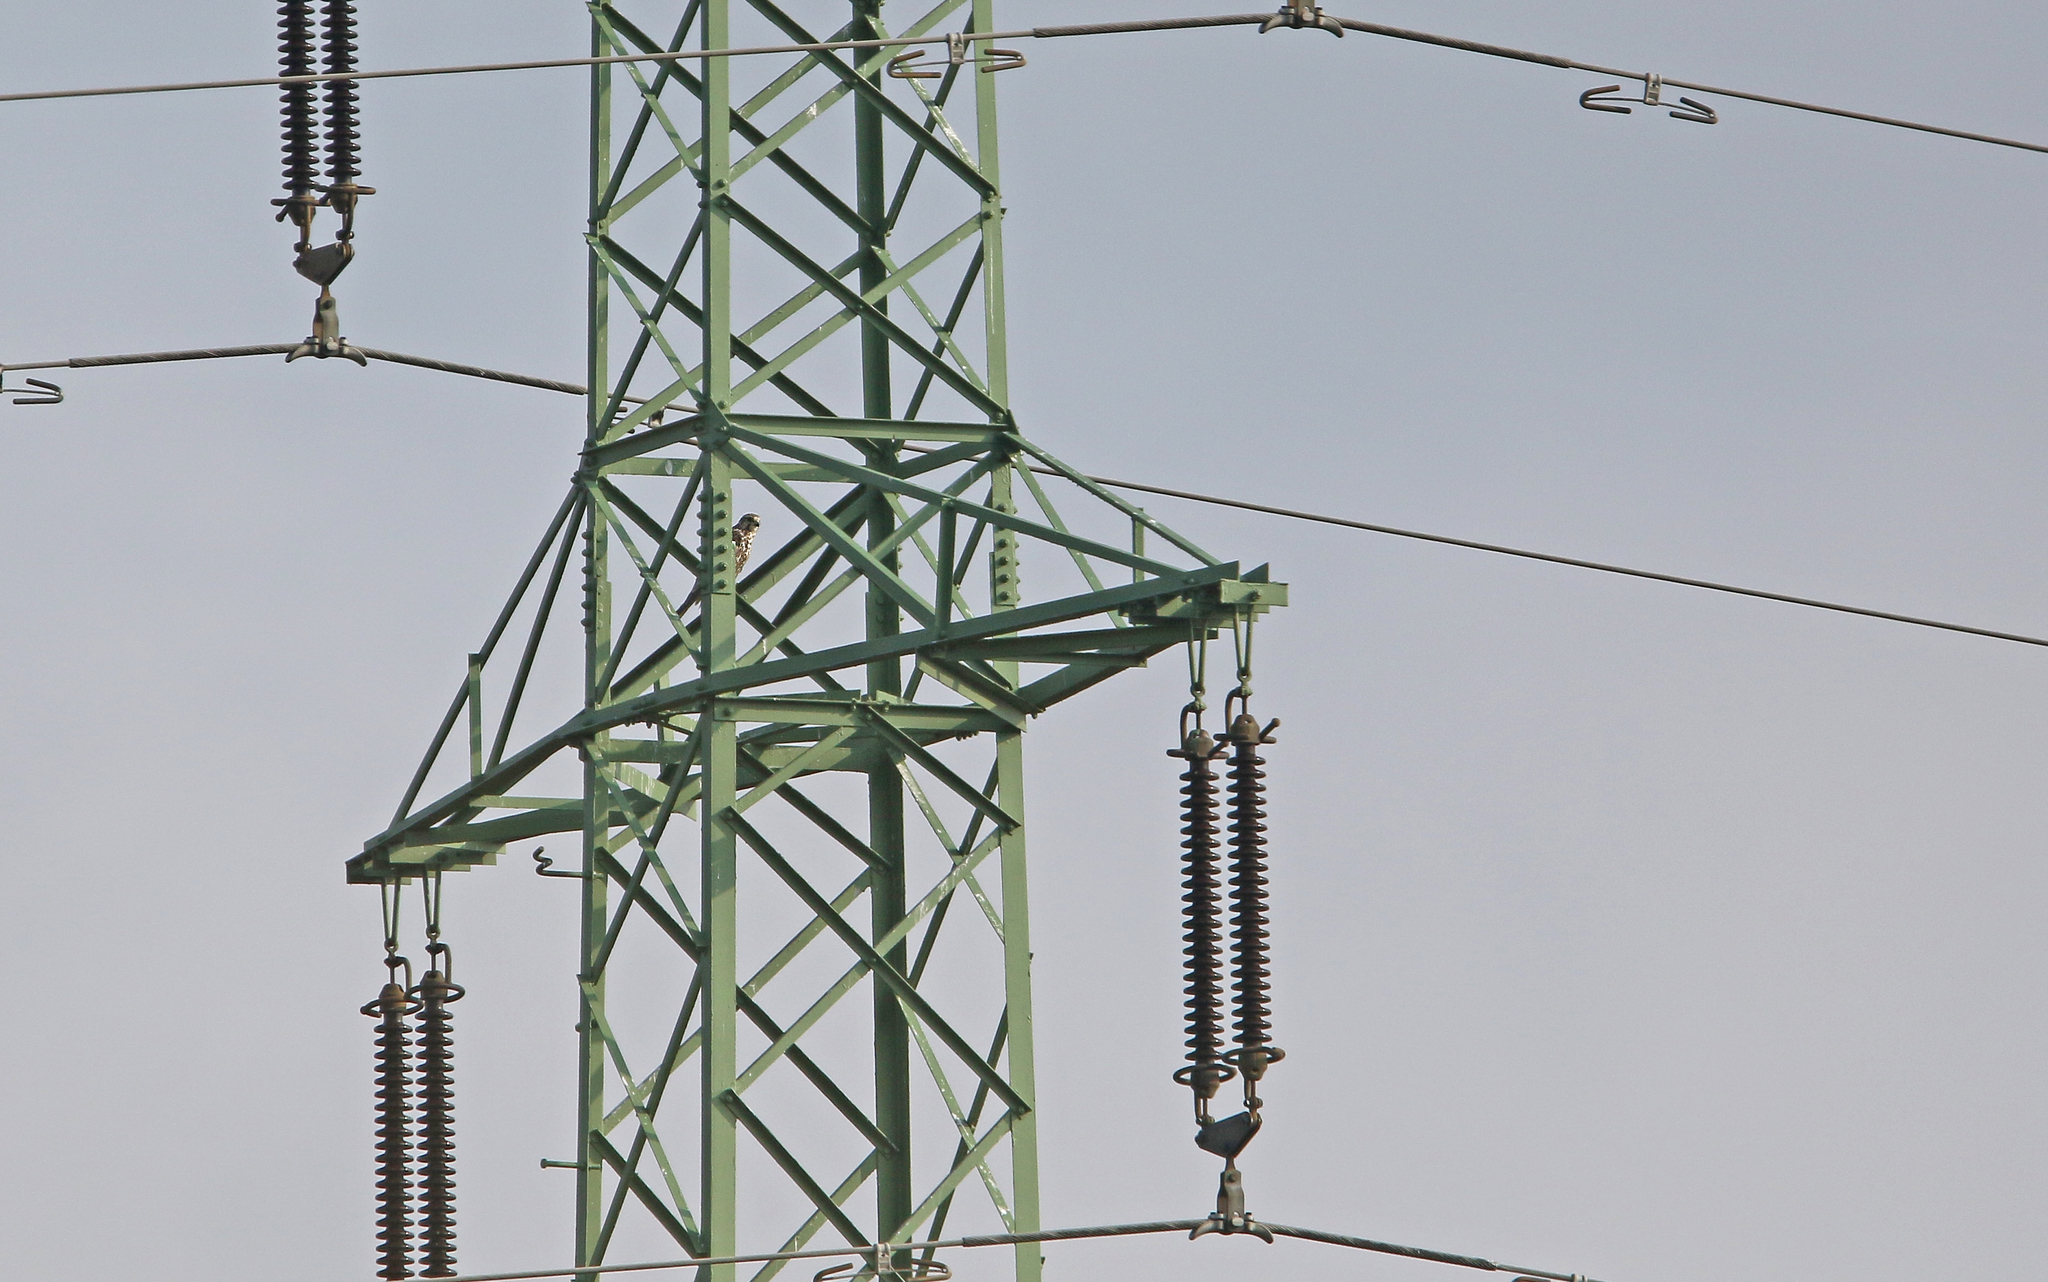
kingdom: Animalia
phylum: Chordata
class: Aves
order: Falconiformes
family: Falconidae
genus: Falco
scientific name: Falco cherrug
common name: Saker falcon
